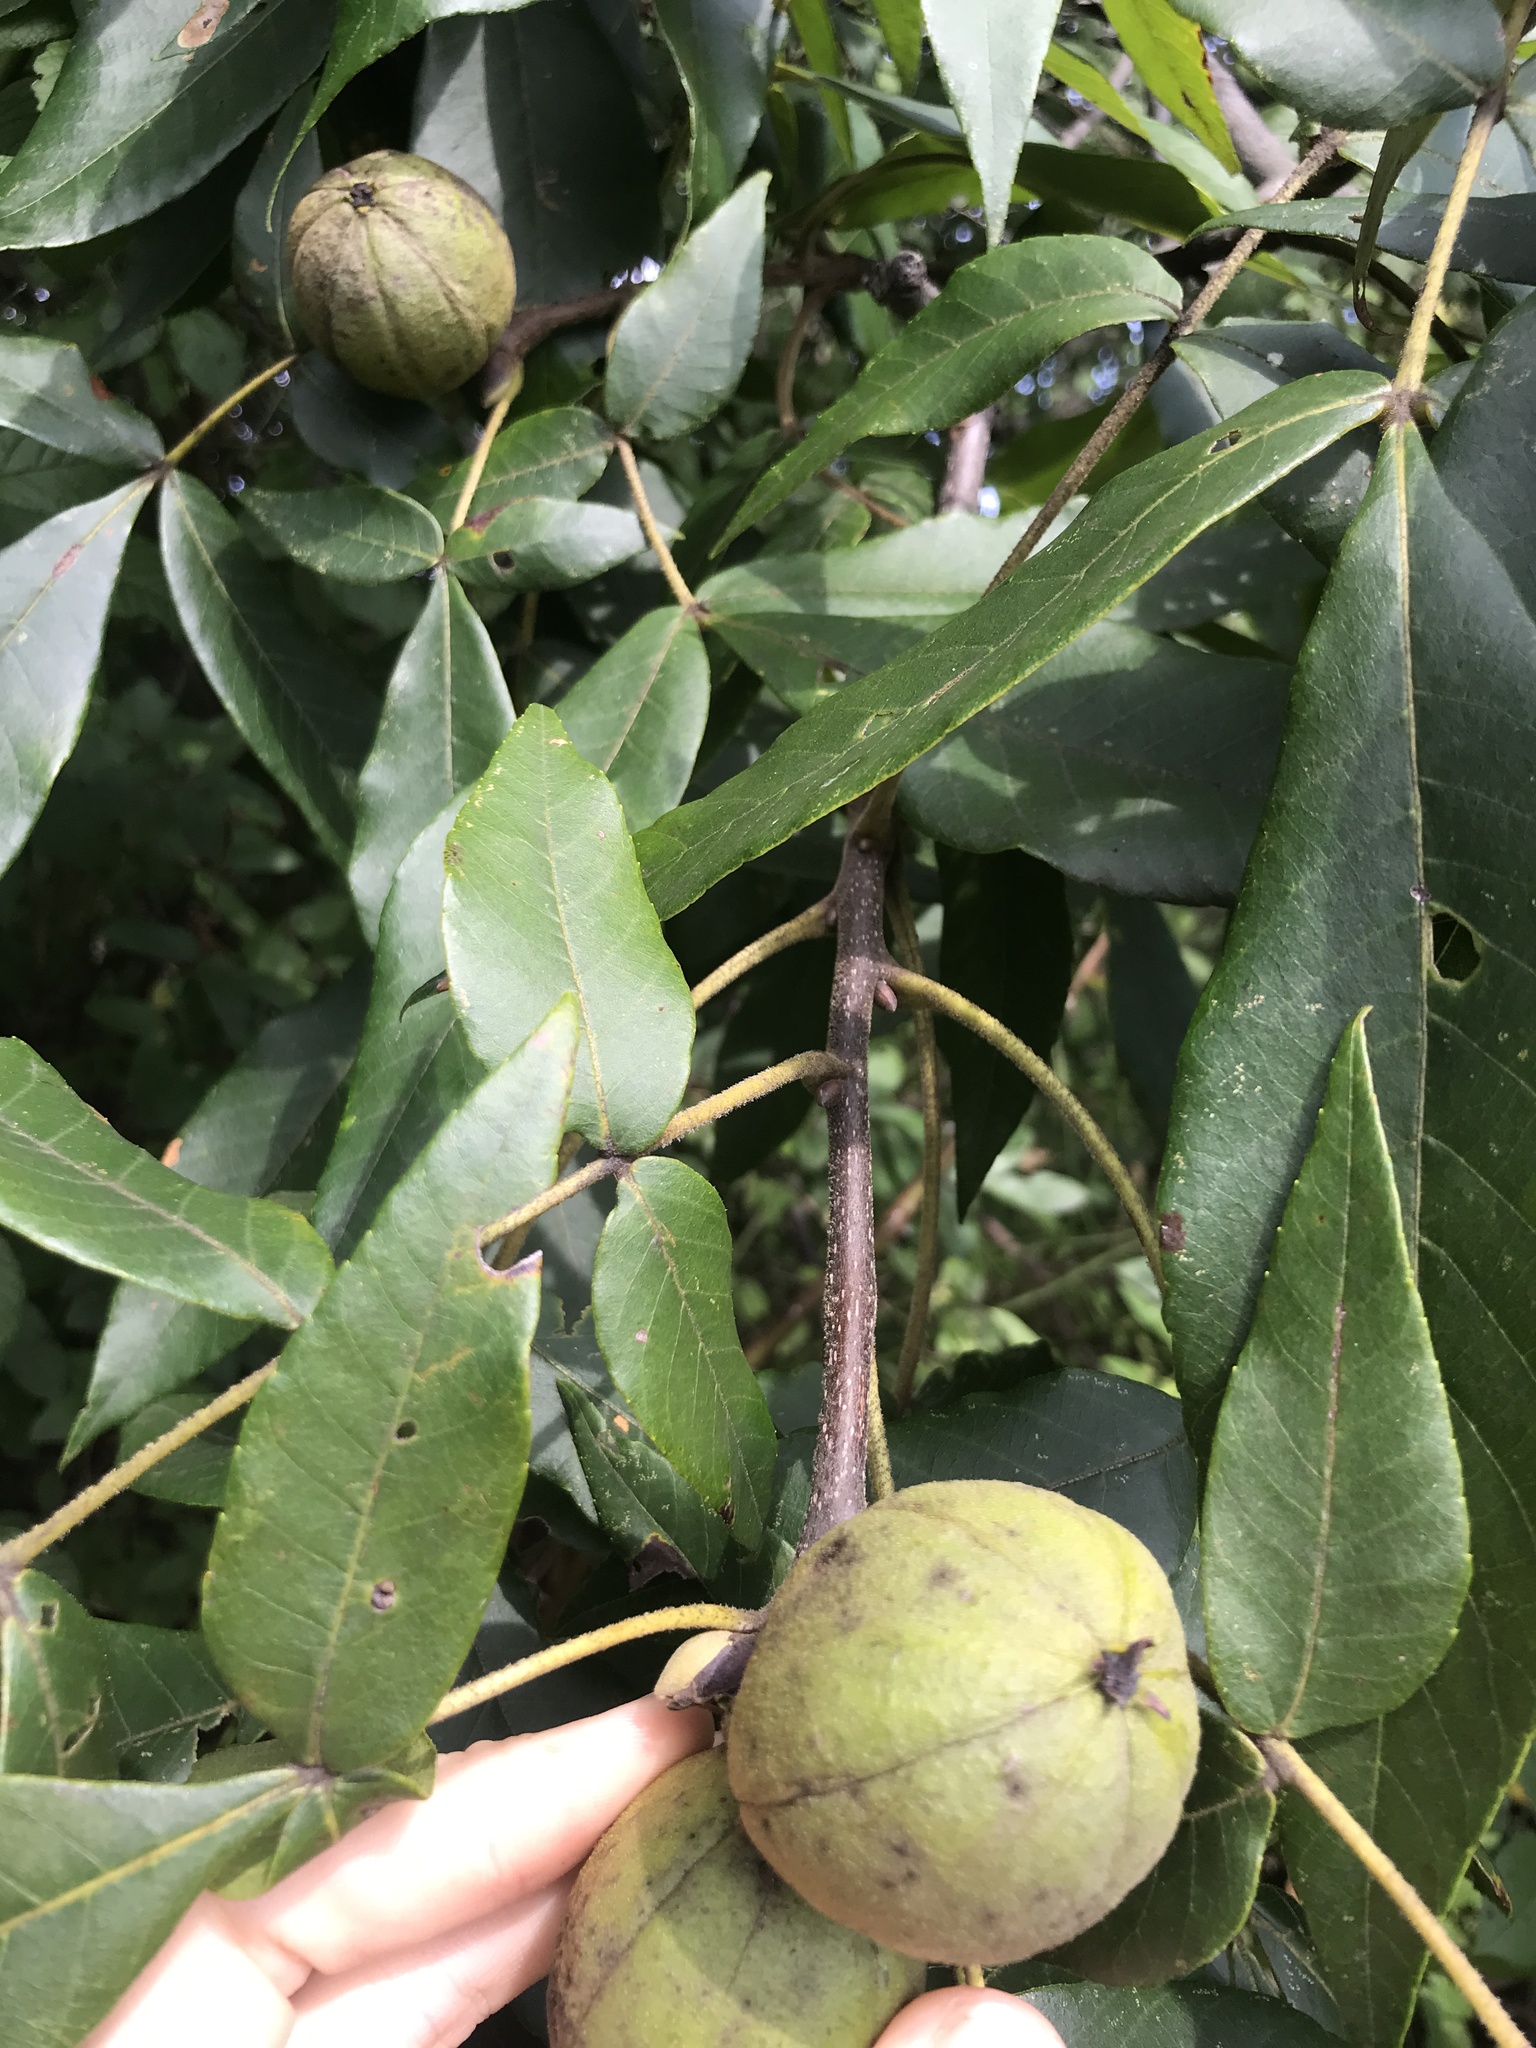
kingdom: Plantae
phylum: Tracheophyta
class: Magnoliopsida
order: Fagales
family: Juglandaceae
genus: Carya
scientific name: Carya alba
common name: Mockernut hickory
